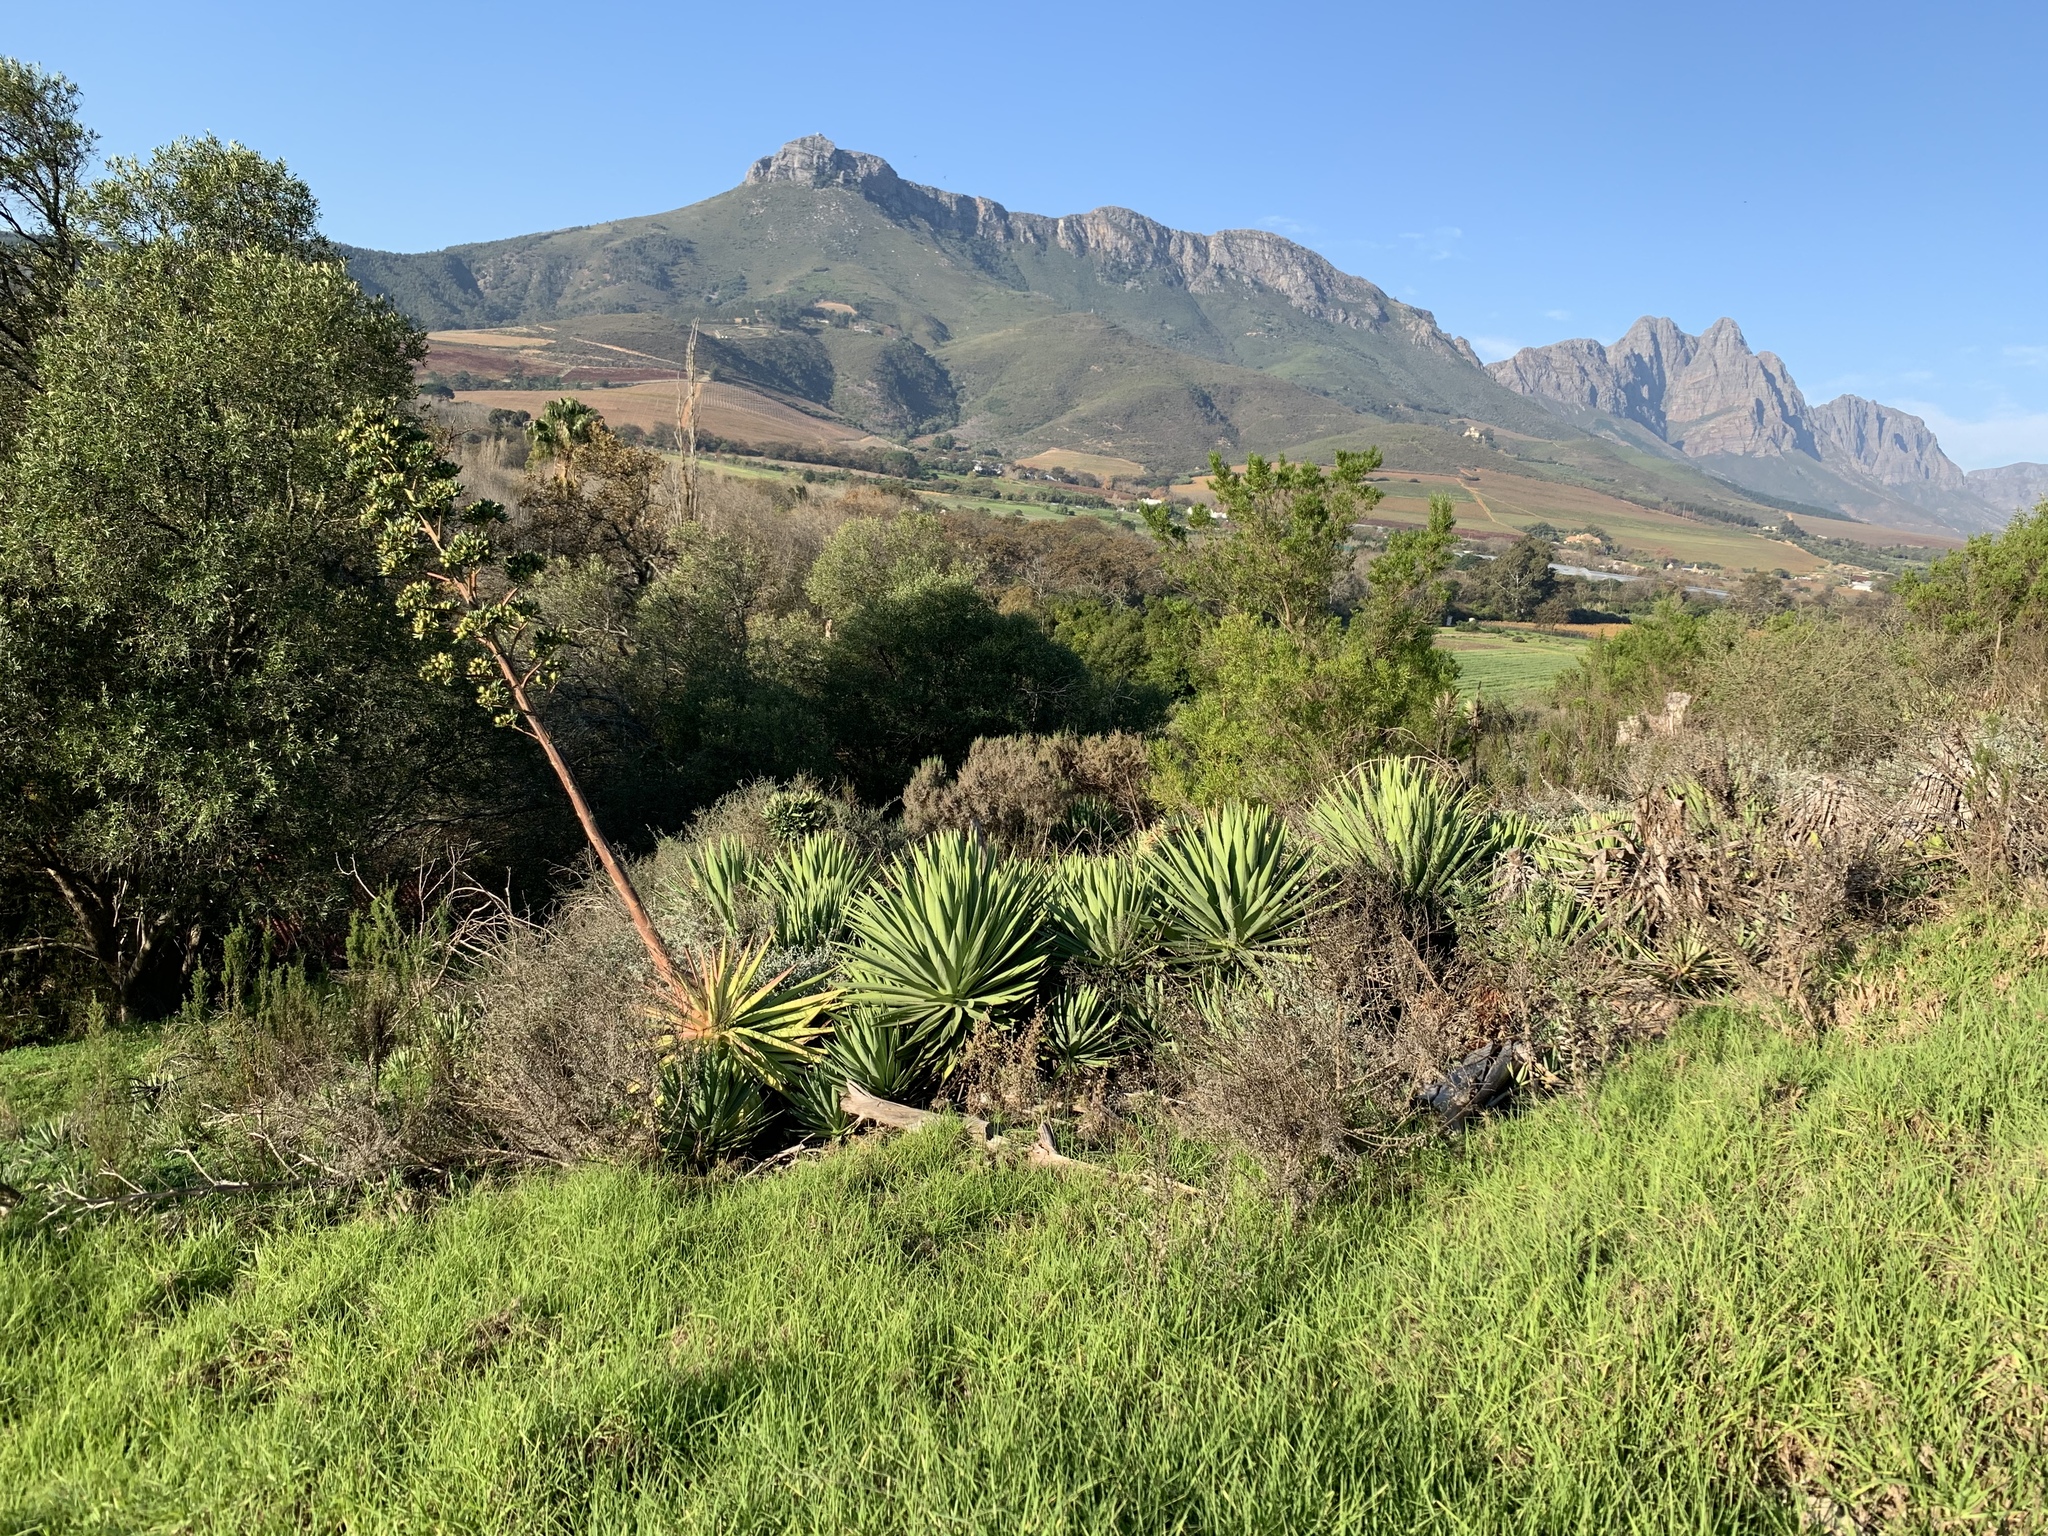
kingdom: Plantae
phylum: Tracheophyta
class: Liliopsida
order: Asparagales
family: Asparagaceae
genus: Agave
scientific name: Agave angustifolia
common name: Mescal agave
